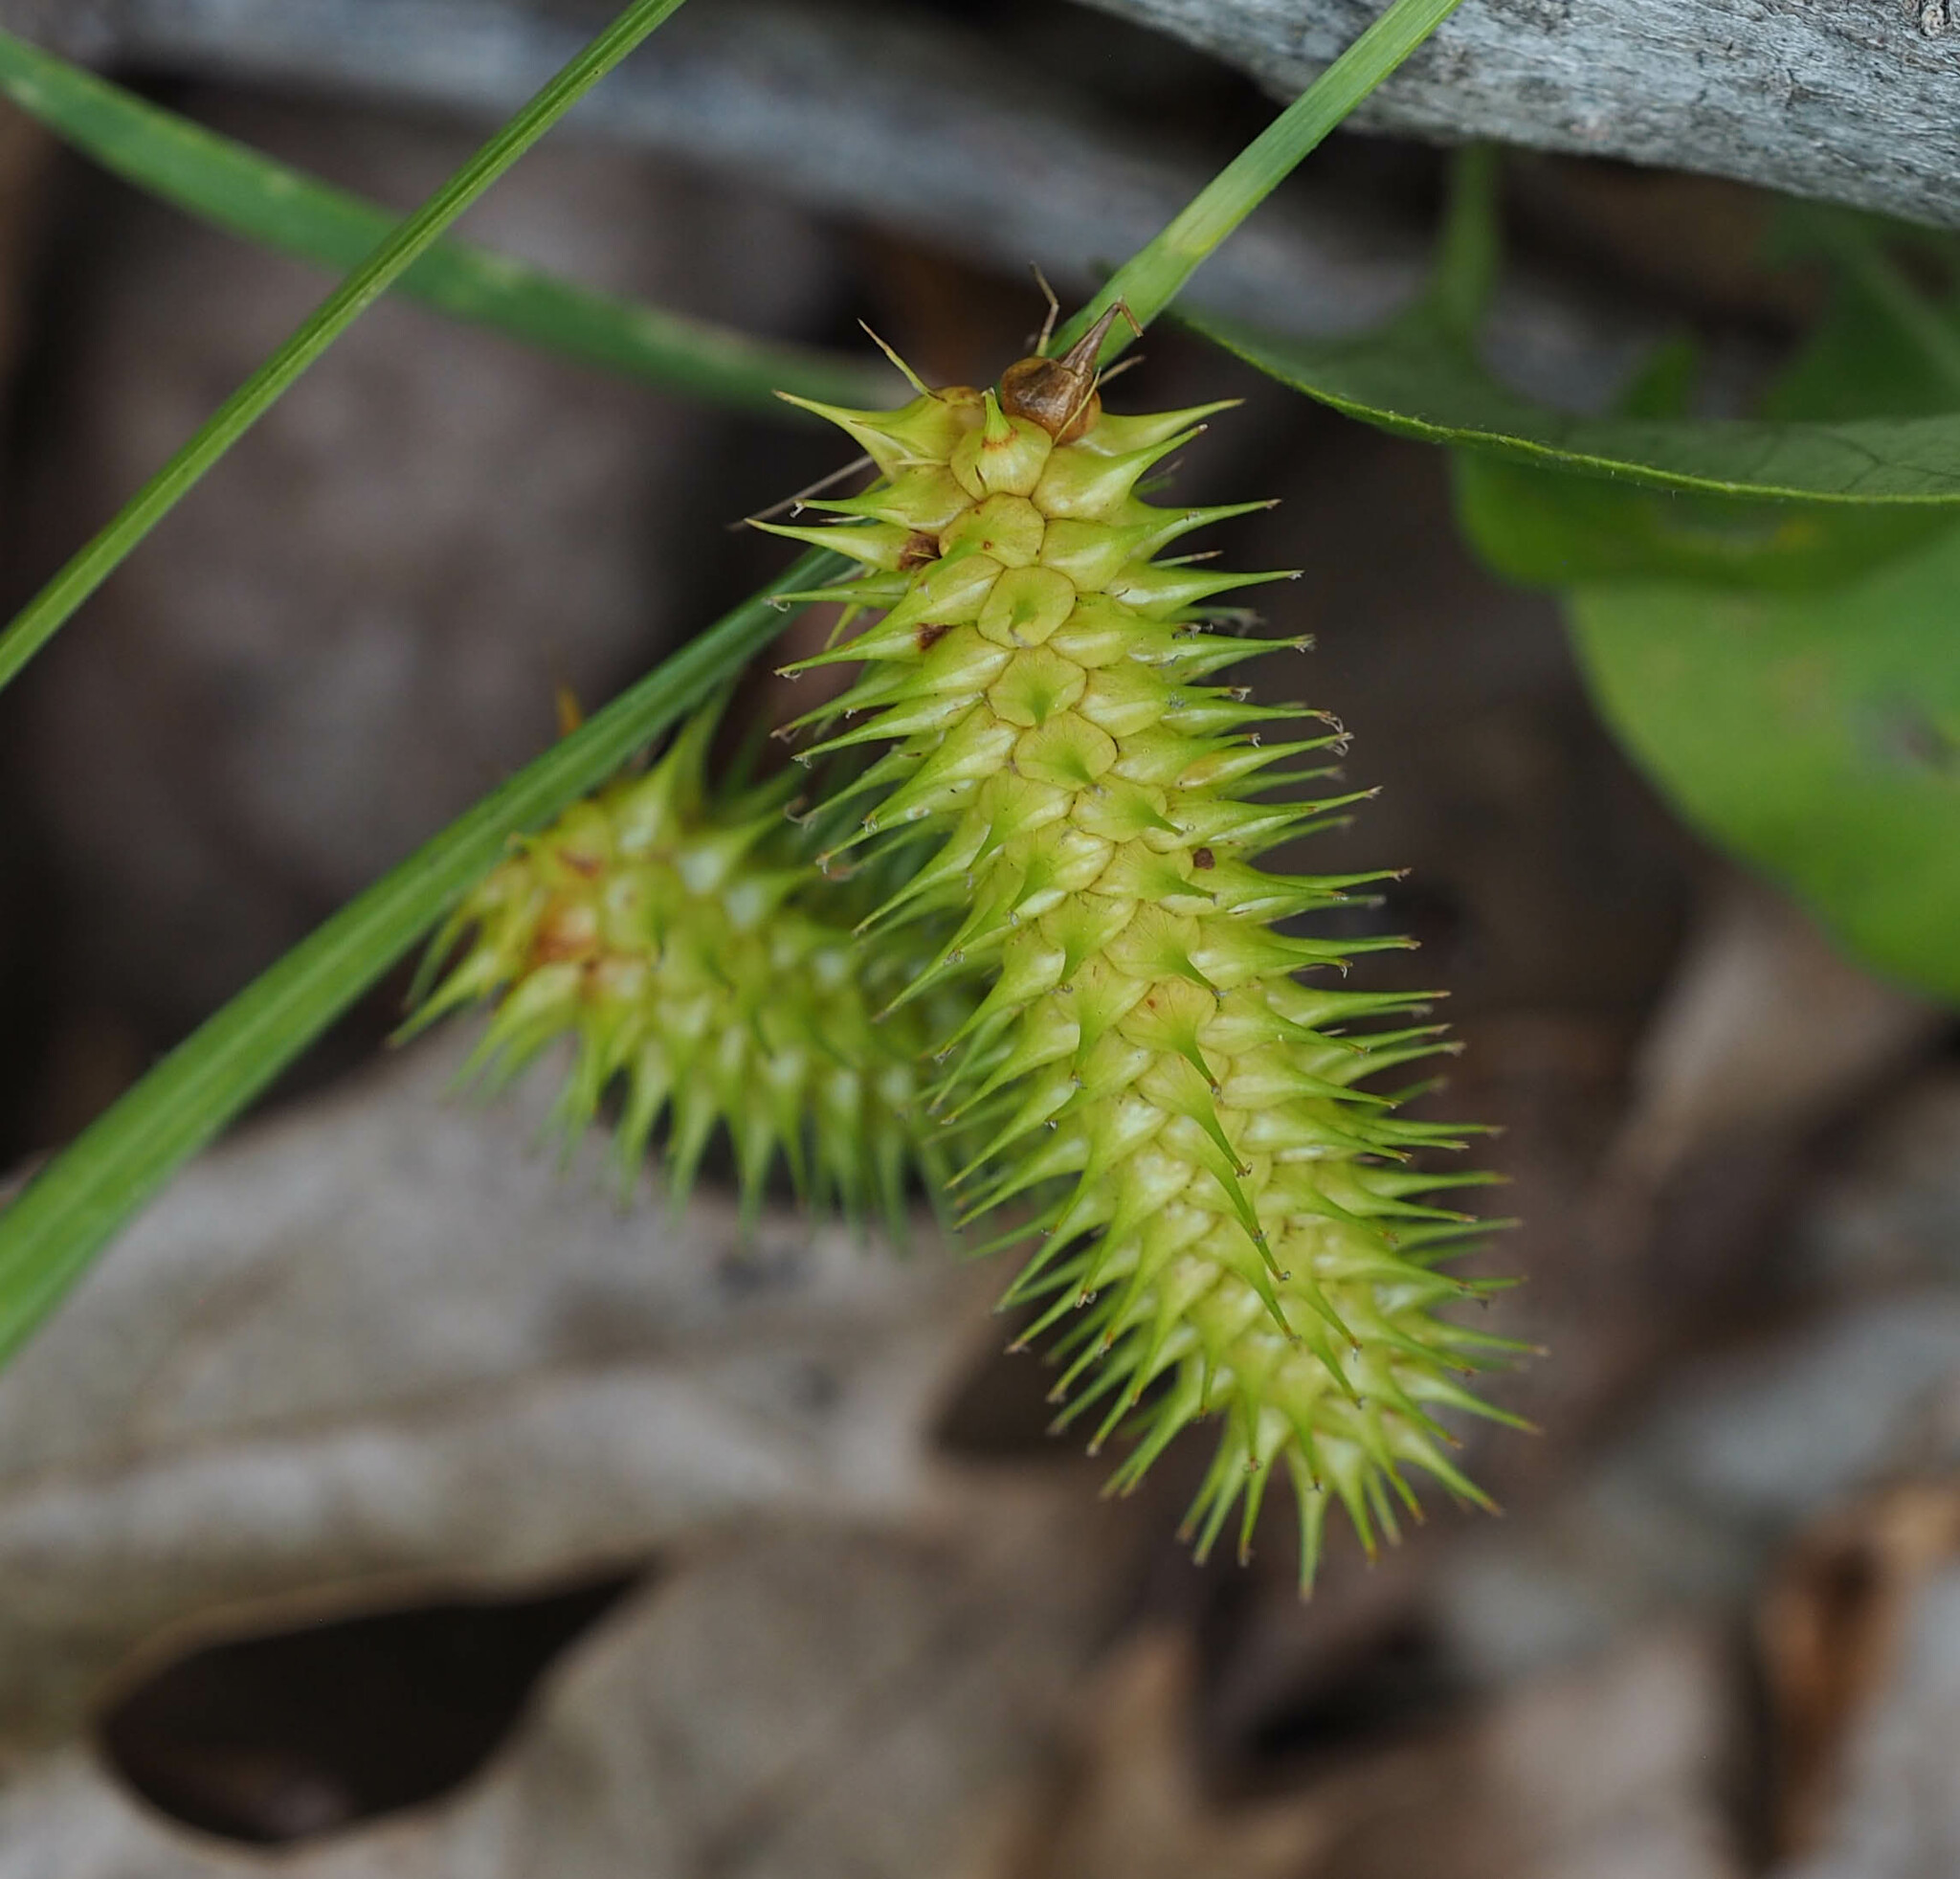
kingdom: Plantae
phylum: Tracheophyta
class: Liliopsida
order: Poales
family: Cyperaceae
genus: Carex
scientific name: Carex lurida
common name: Sallow sedge
